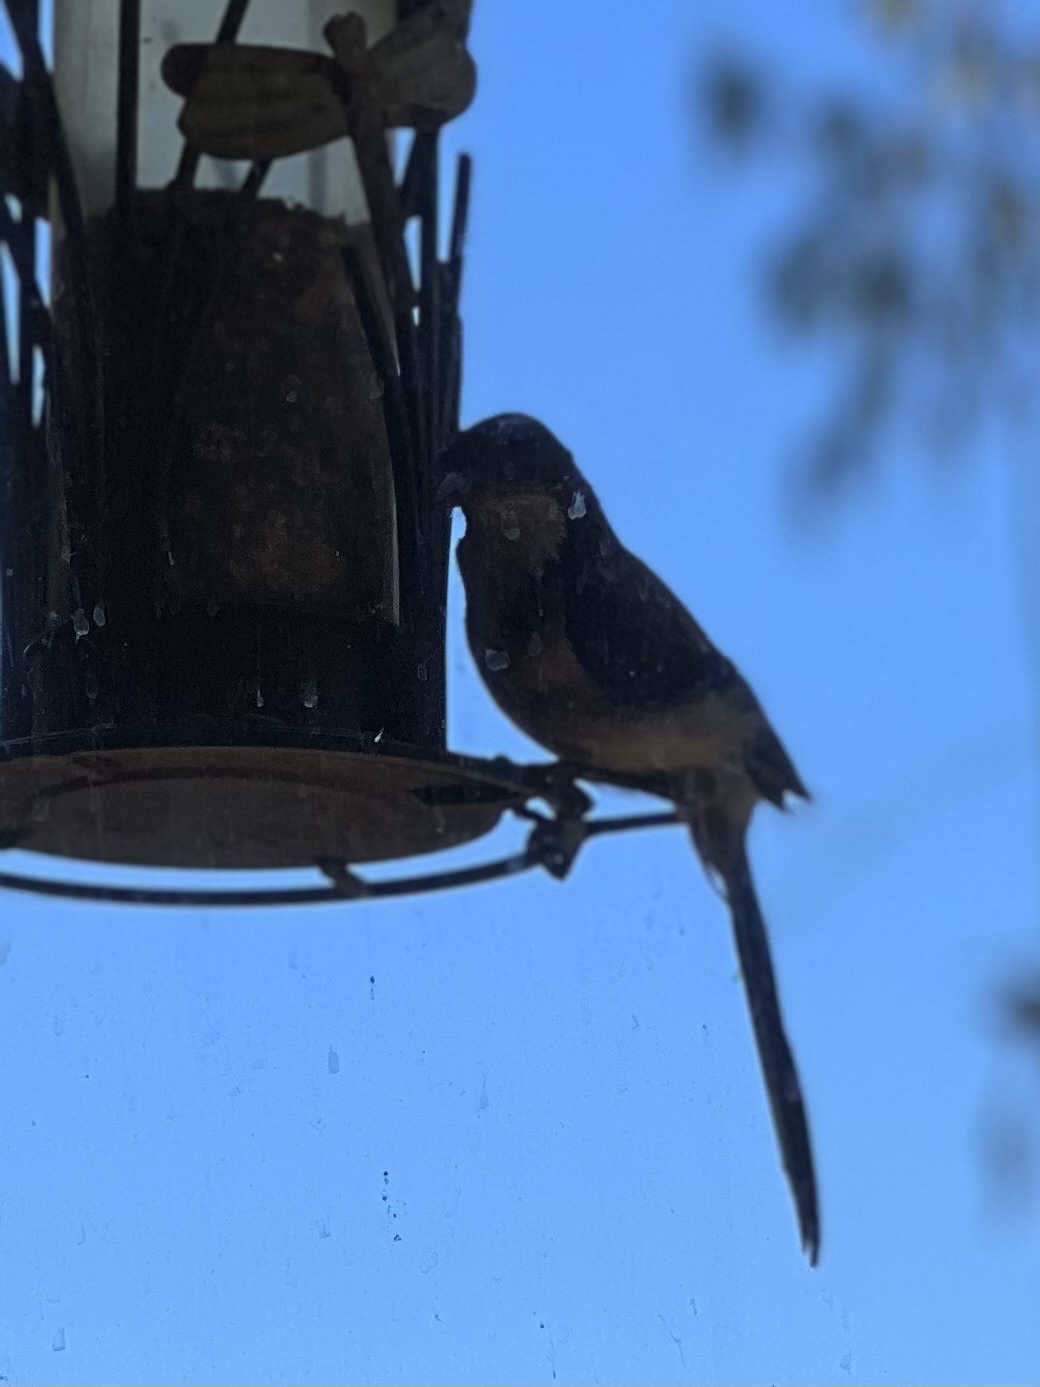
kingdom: Animalia
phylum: Chordata
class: Aves
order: Passeriformes
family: Corvidae
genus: Aphelocoma
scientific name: Aphelocoma californica
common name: California scrub-jay
